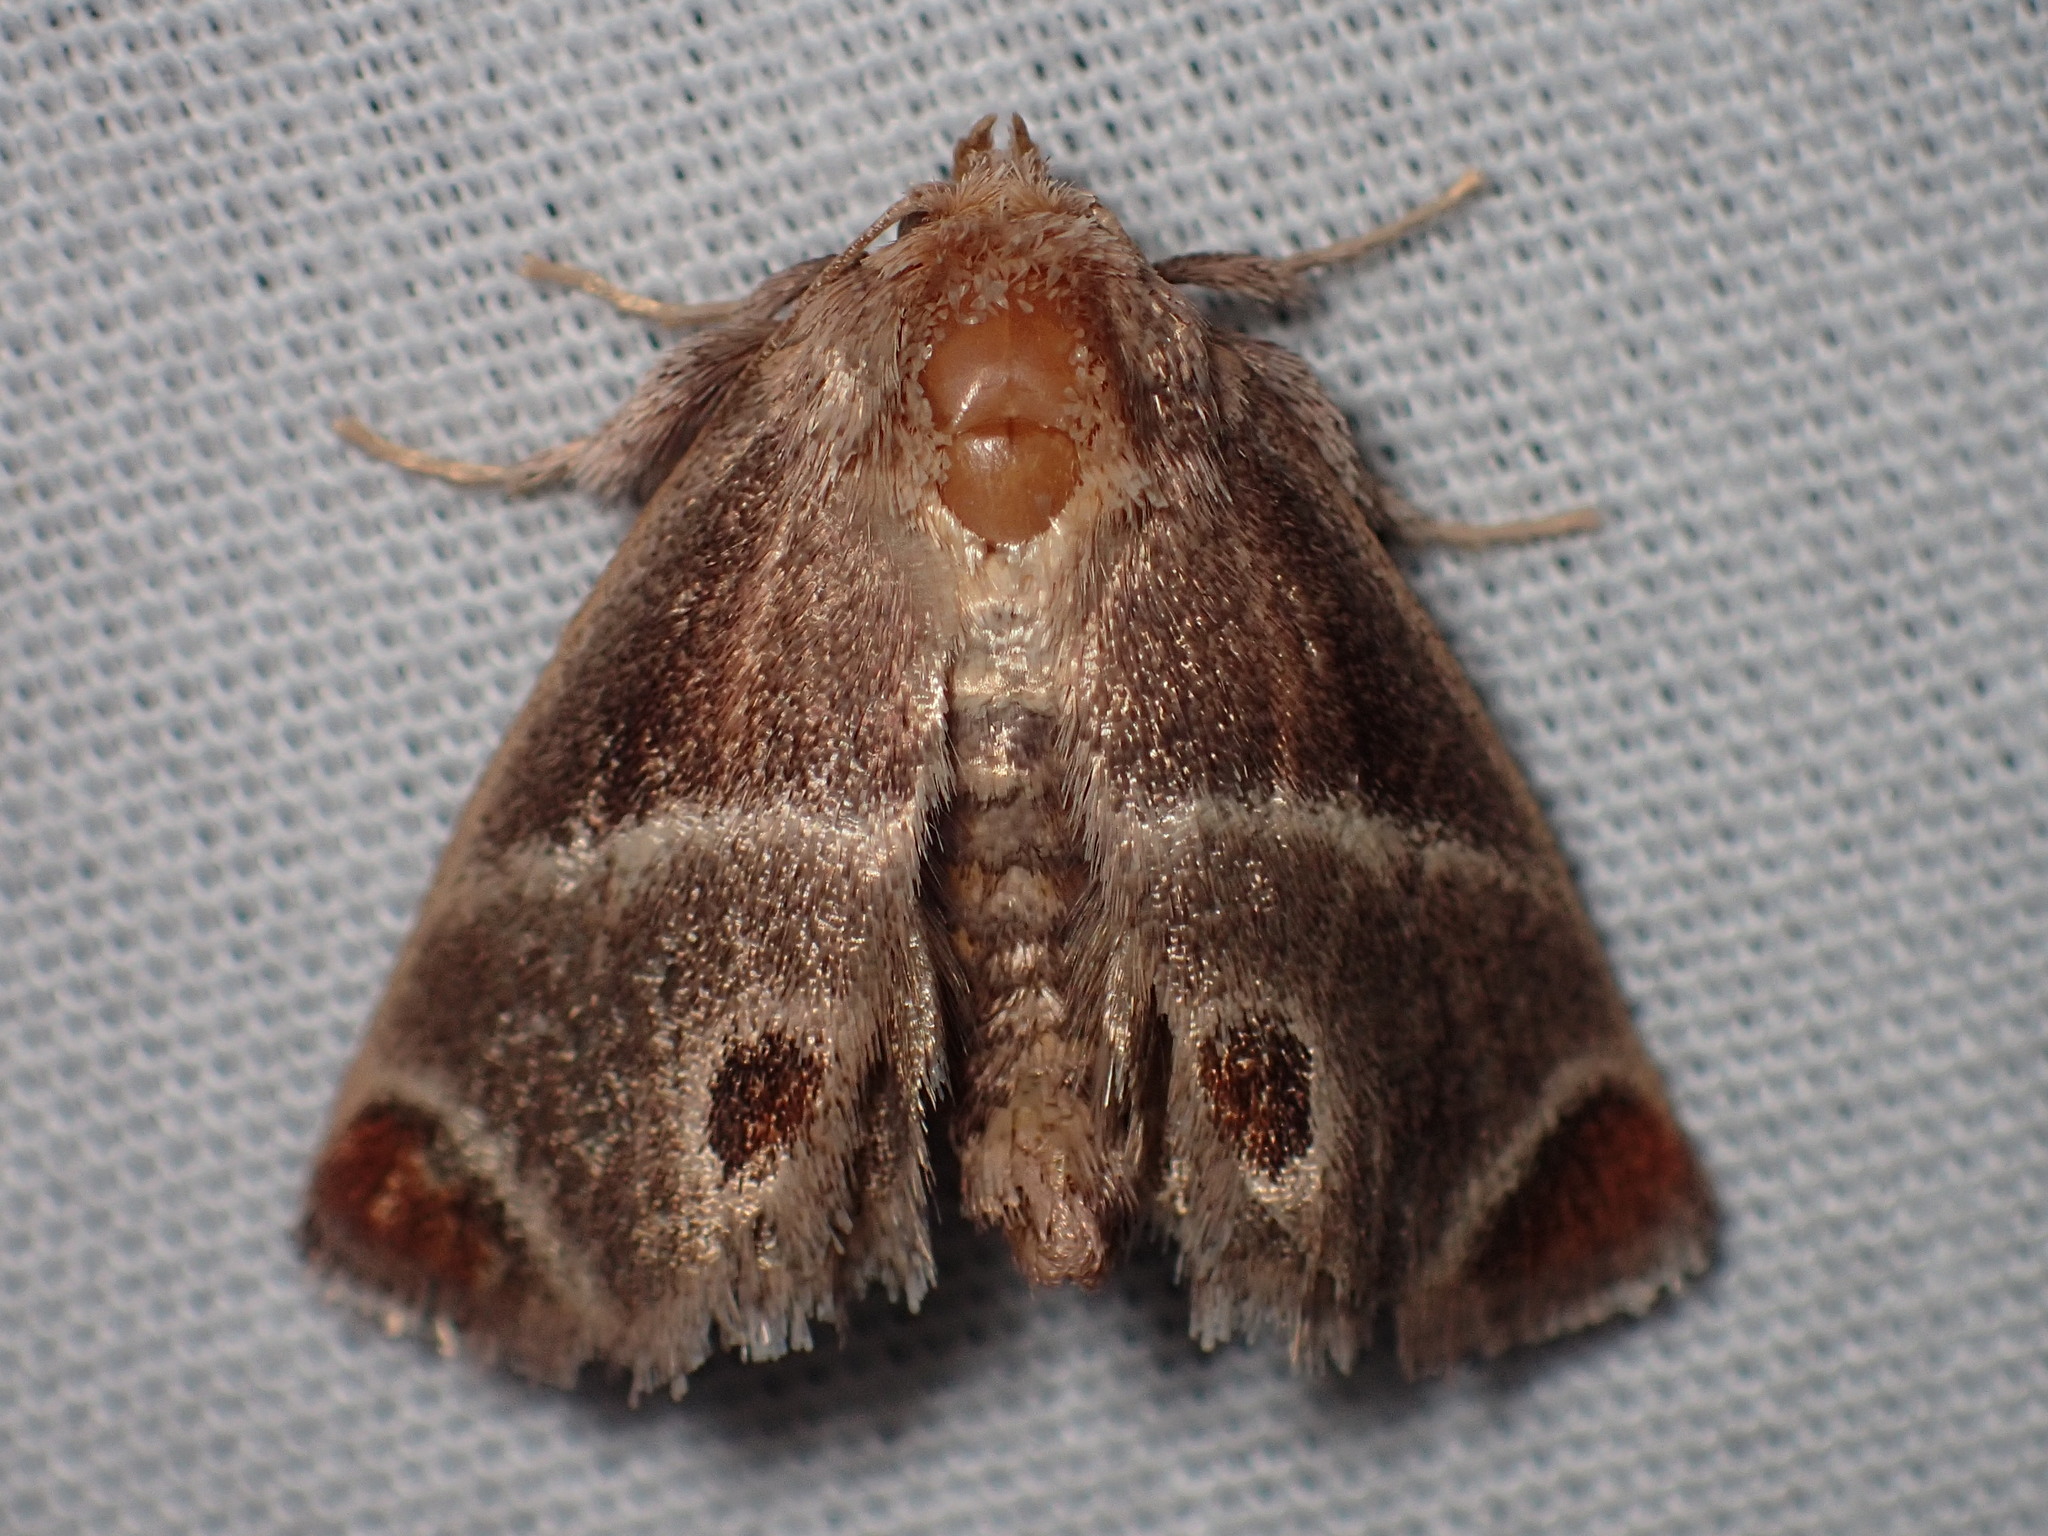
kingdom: Animalia
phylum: Arthropoda
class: Insecta
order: Lepidoptera
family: Limacodidae
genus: Apoda
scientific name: Apoda biguttata
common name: Shagreened slug moth
